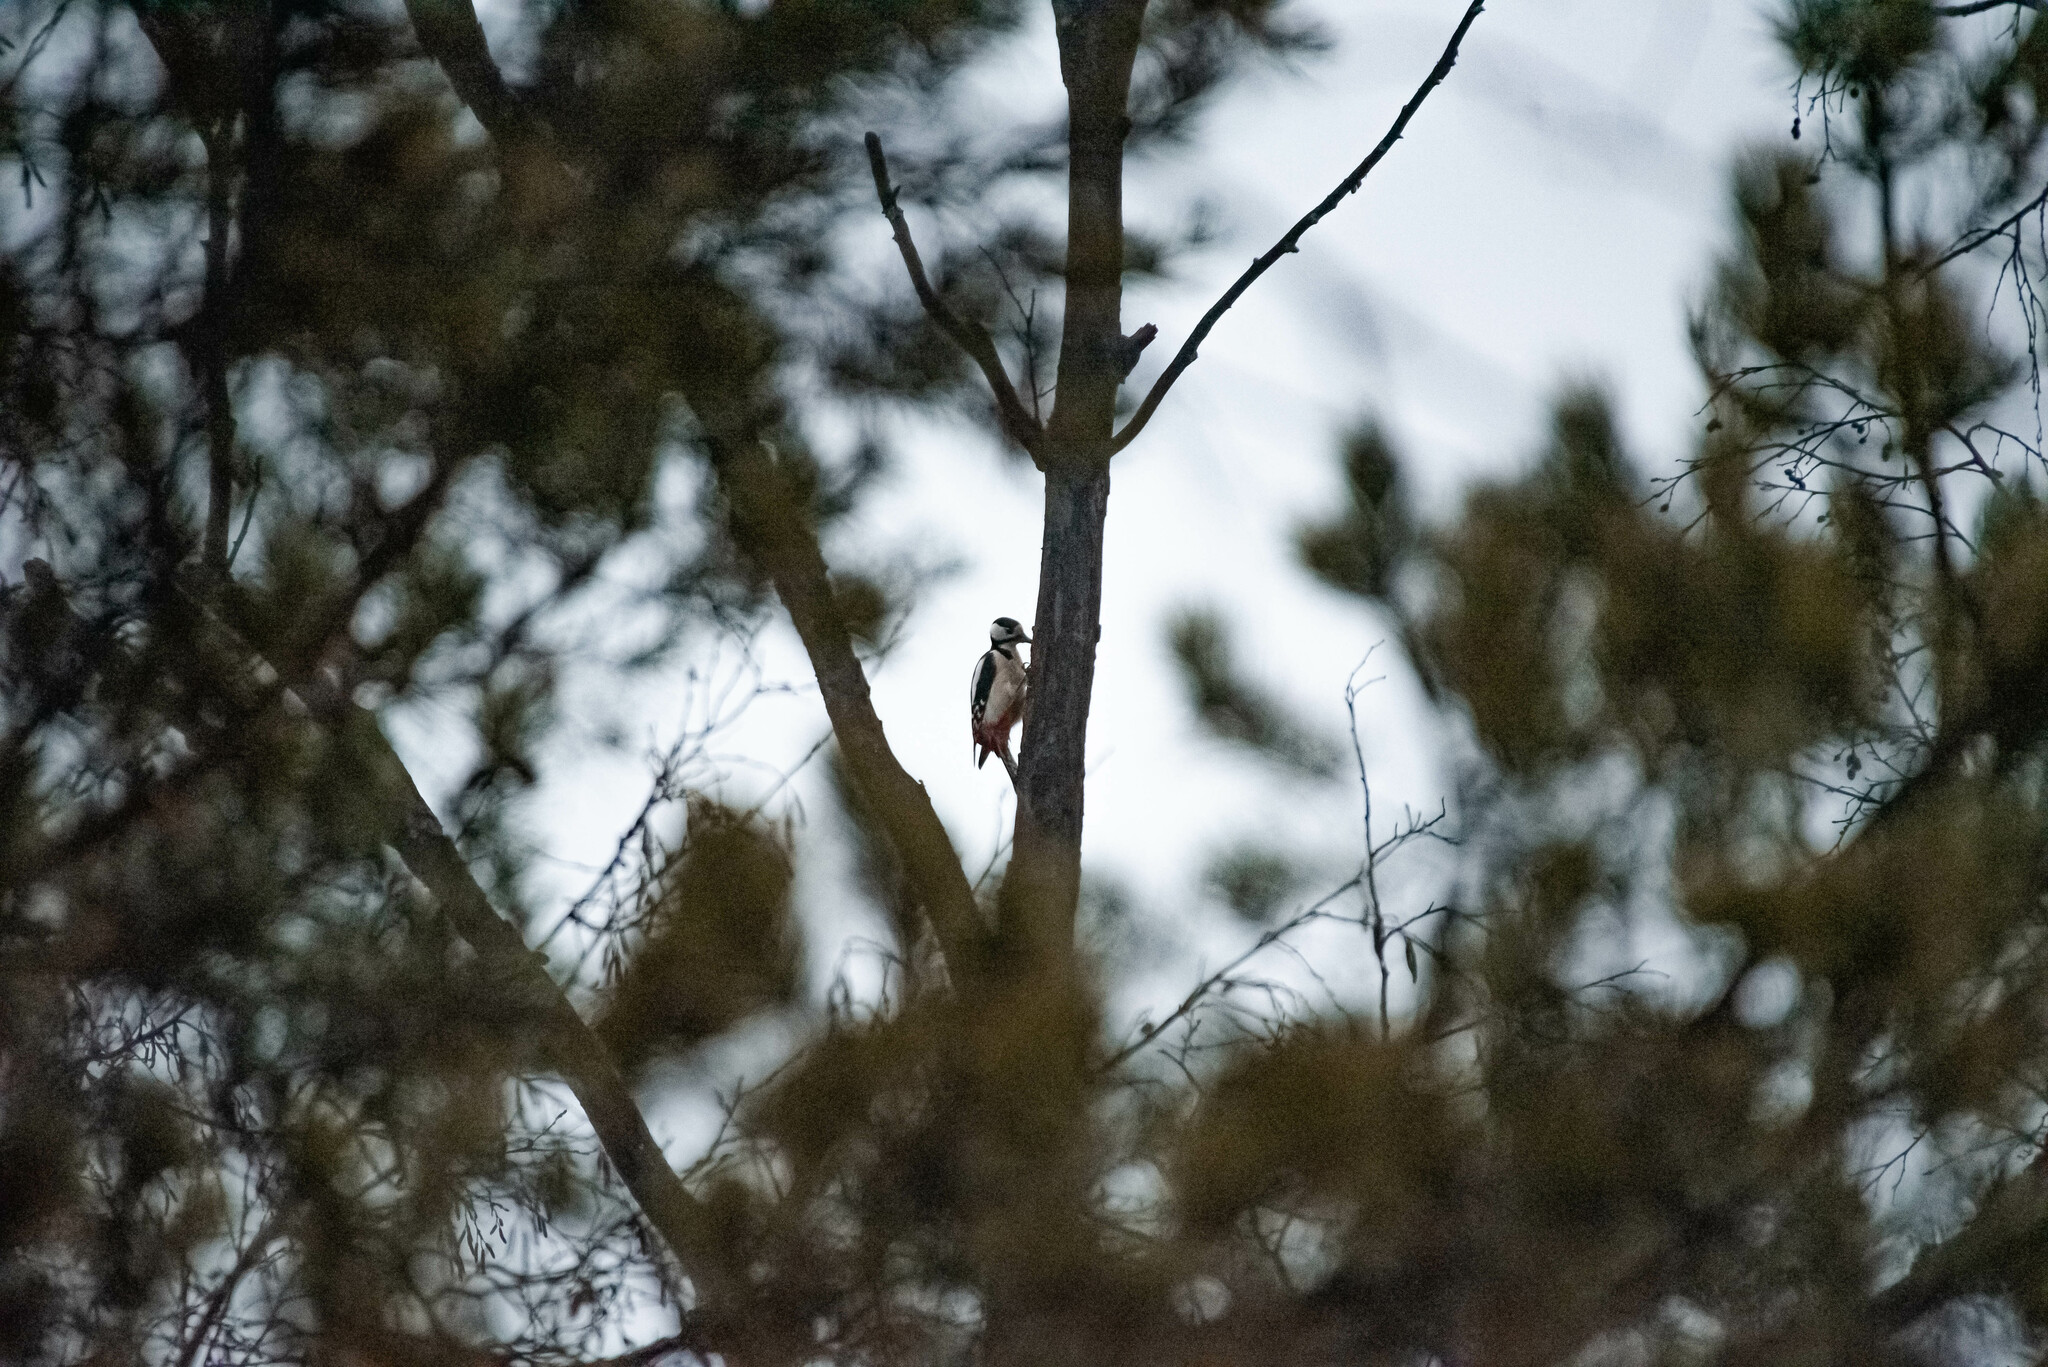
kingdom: Animalia
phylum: Chordata
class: Aves
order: Piciformes
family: Picidae
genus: Dendrocopos
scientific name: Dendrocopos major
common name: Great spotted woodpecker
